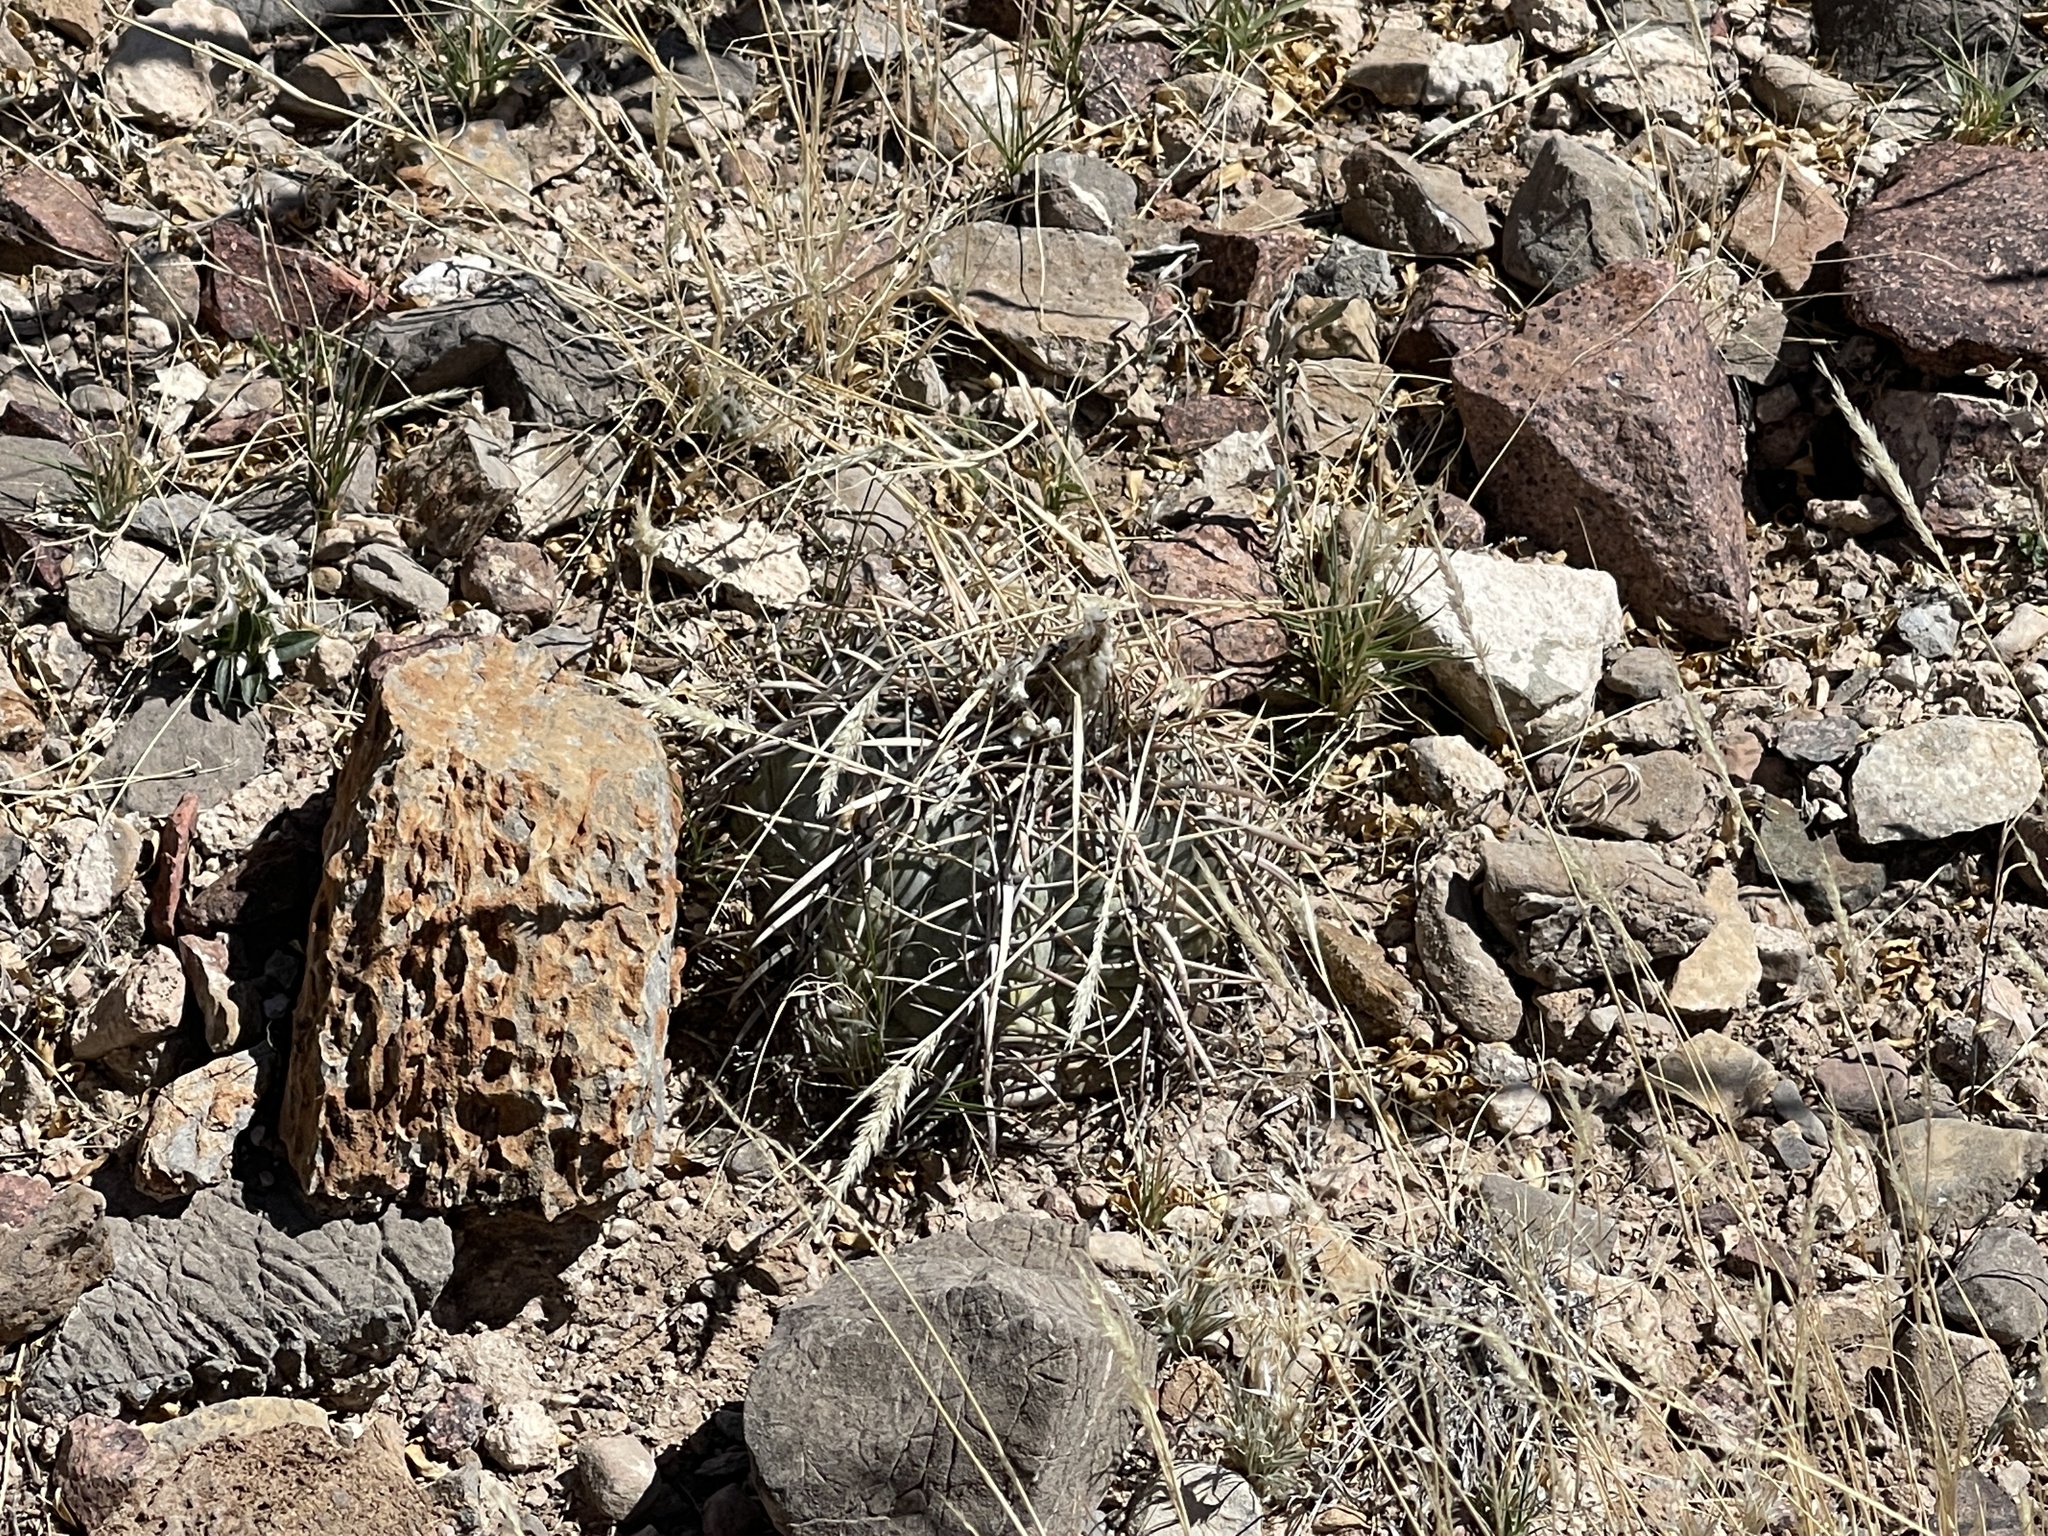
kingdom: Plantae
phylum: Tracheophyta
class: Magnoliopsida
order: Caryophyllales
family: Cactaceae
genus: Echinocactus
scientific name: Echinocactus horizonthalonius
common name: Devilshead
